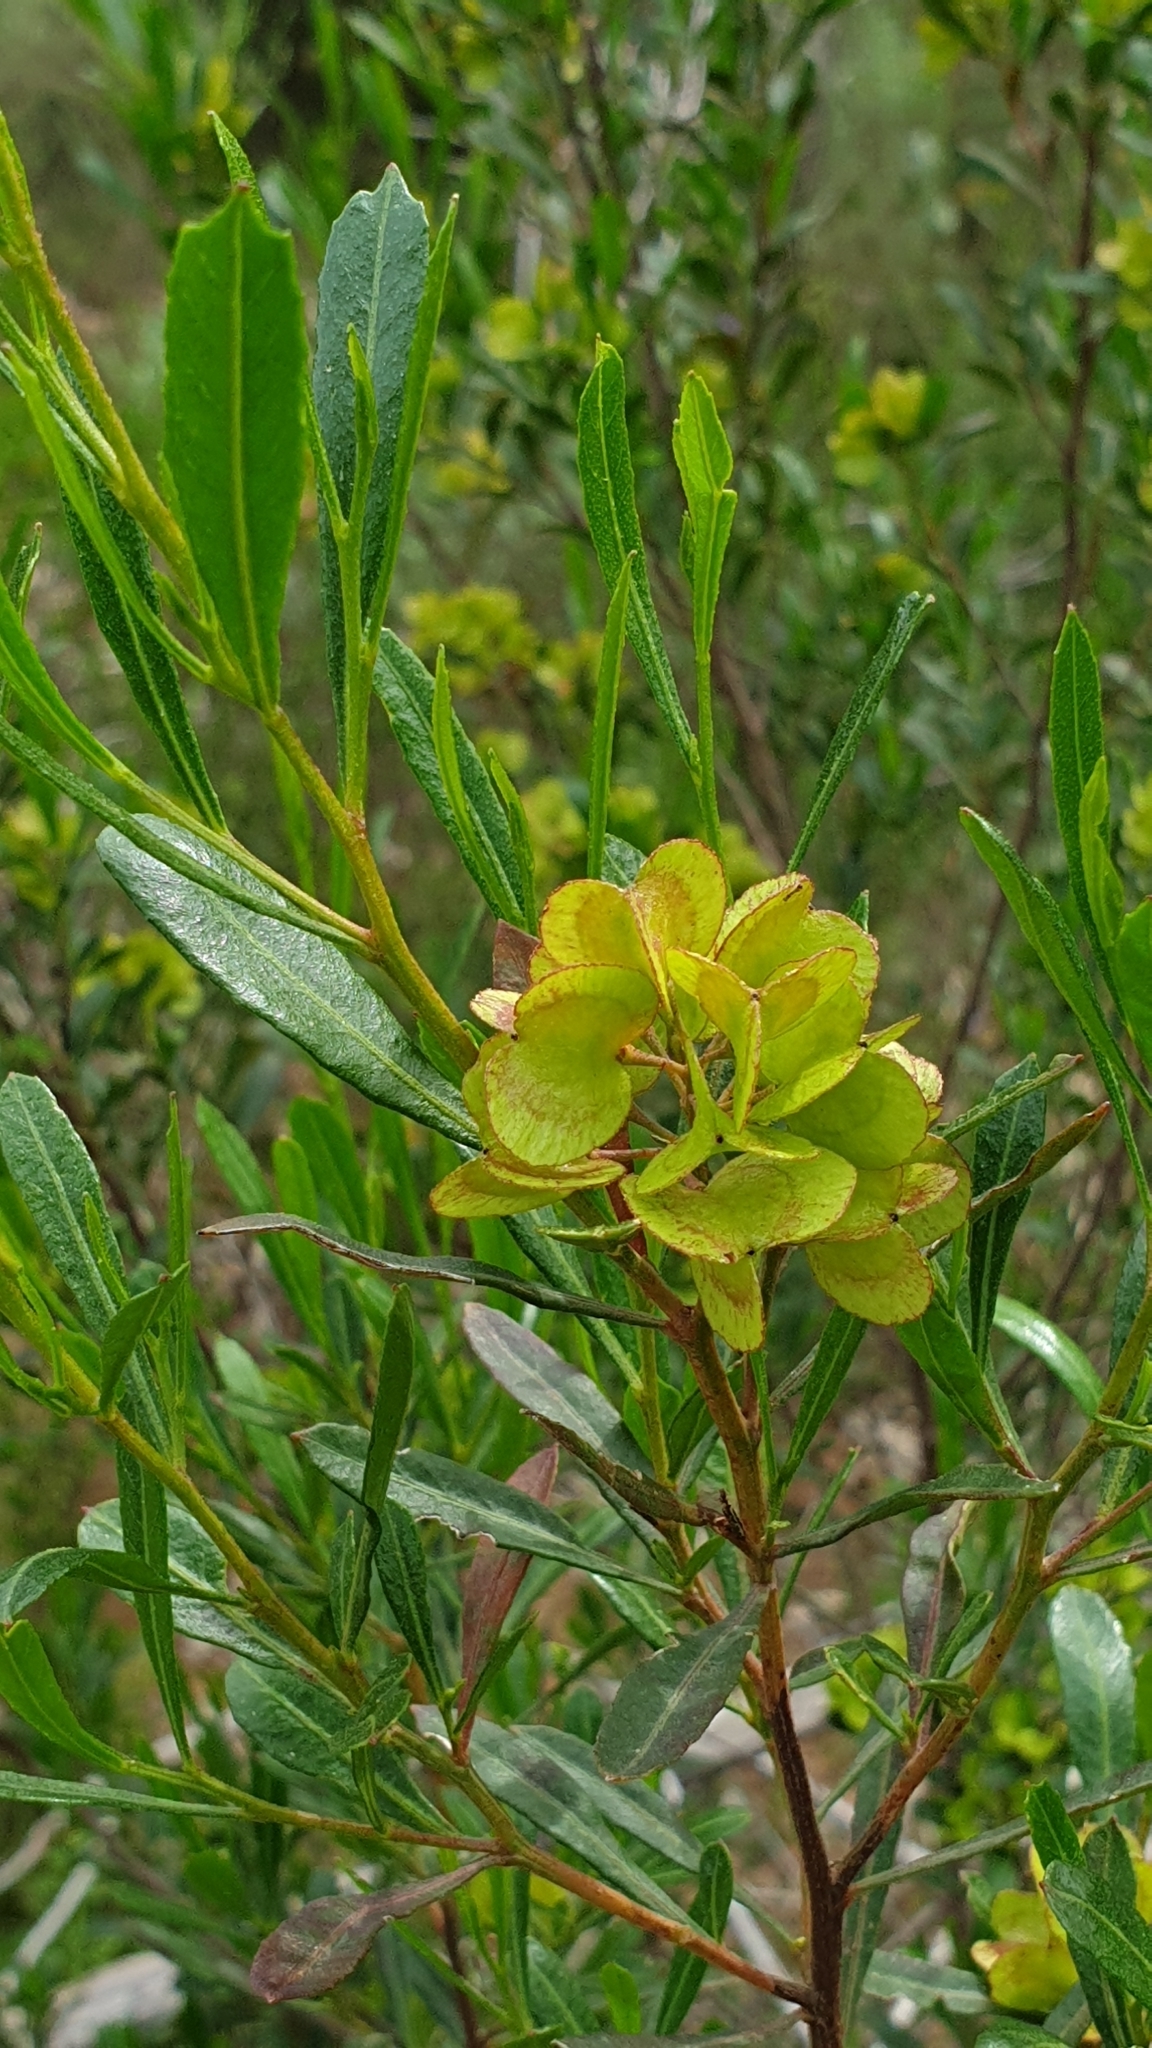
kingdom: Plantae
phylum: Tracheophyta
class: Magnoliopsida
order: Sapindales
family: Sapindaceae
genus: Dodonaea
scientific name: Dodonaea viscosa
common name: Hopbush
